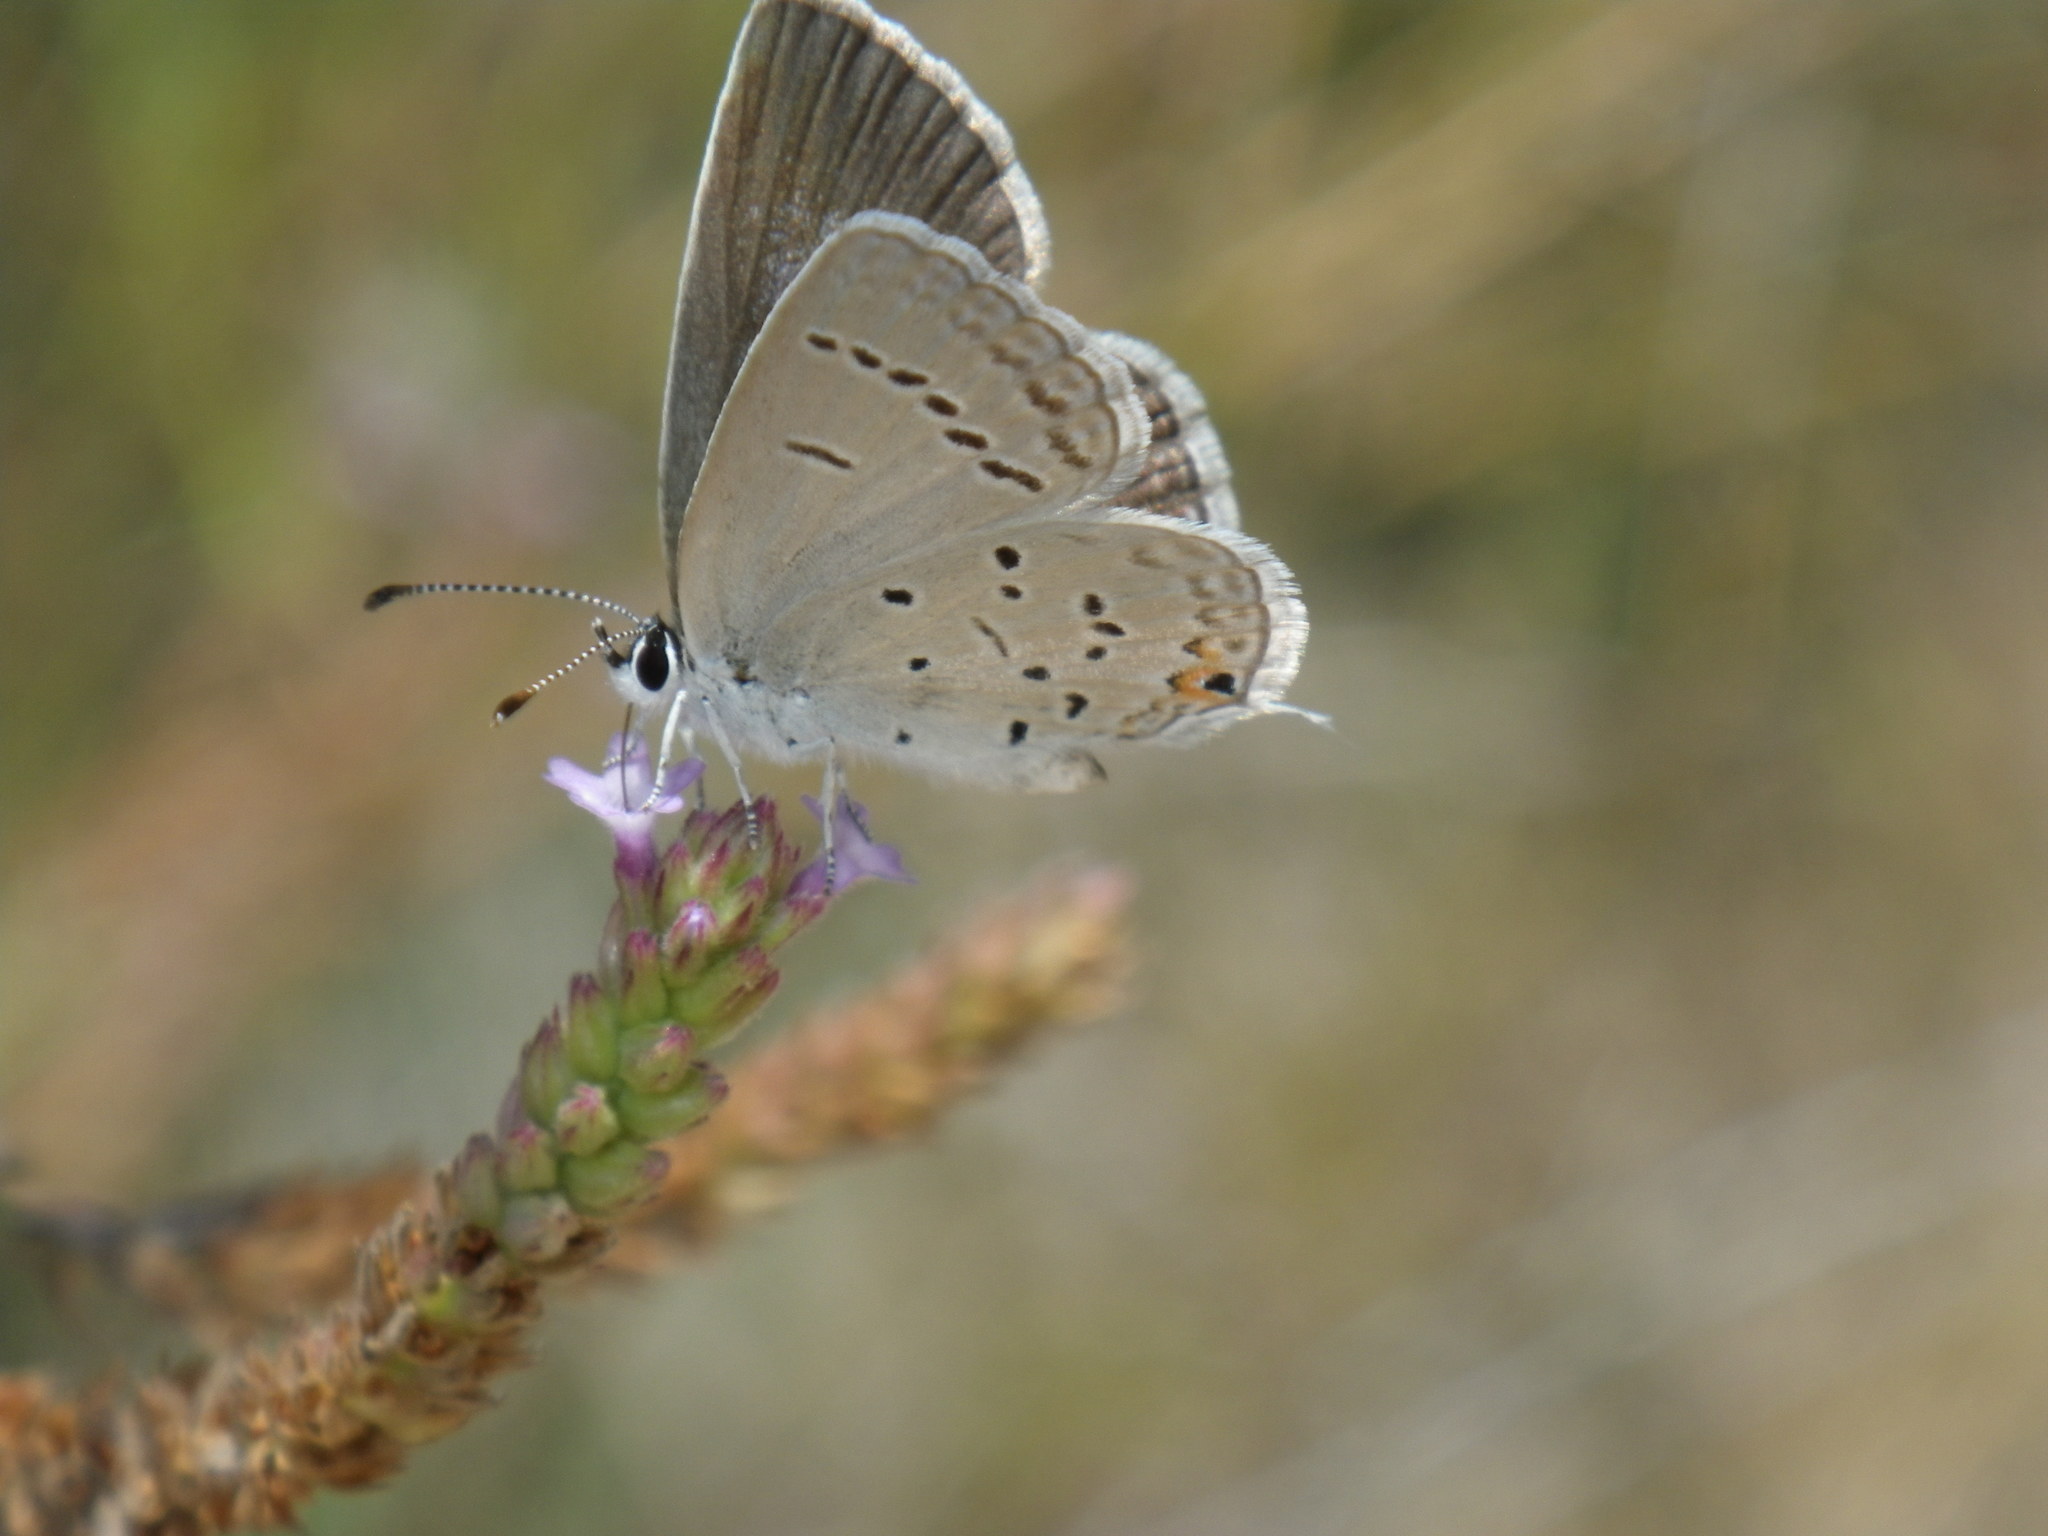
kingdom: Animalia
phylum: Arthropoda
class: Insecta
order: Lepidoptera
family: Lycaenidae
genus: Elkalyce
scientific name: Elkalyce comyntas
